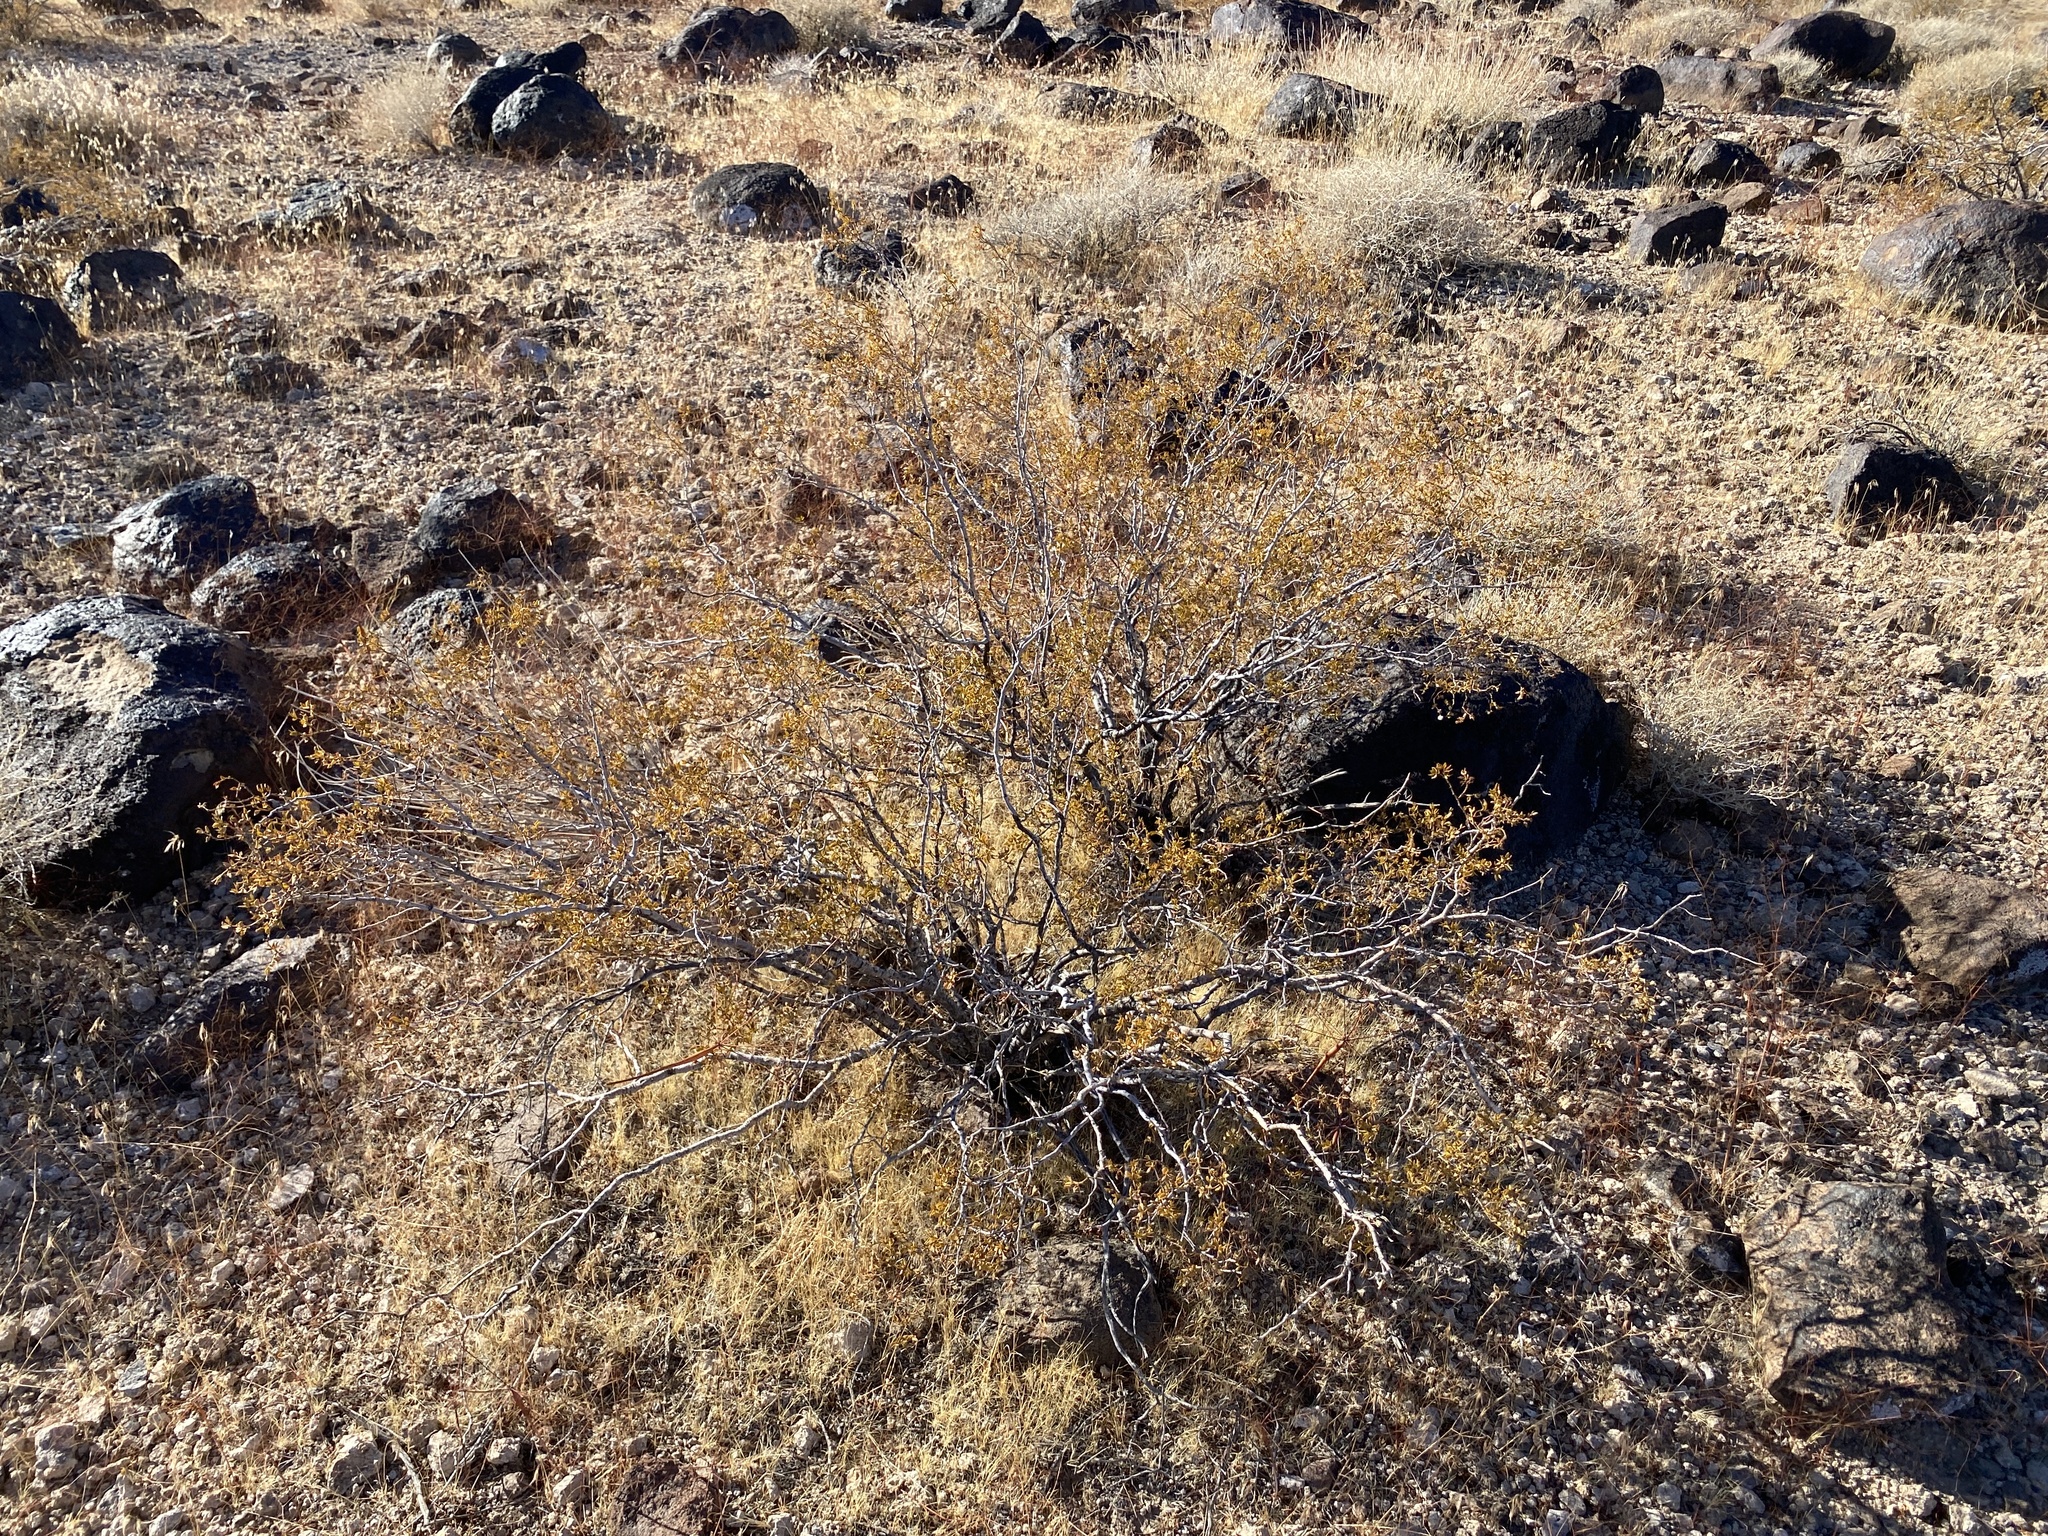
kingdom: Plantae
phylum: Tracheophyta
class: Magnoliopsida
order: Zygophyllales
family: Zygophyllaceae
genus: Larrea
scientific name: Larrea tridentata
